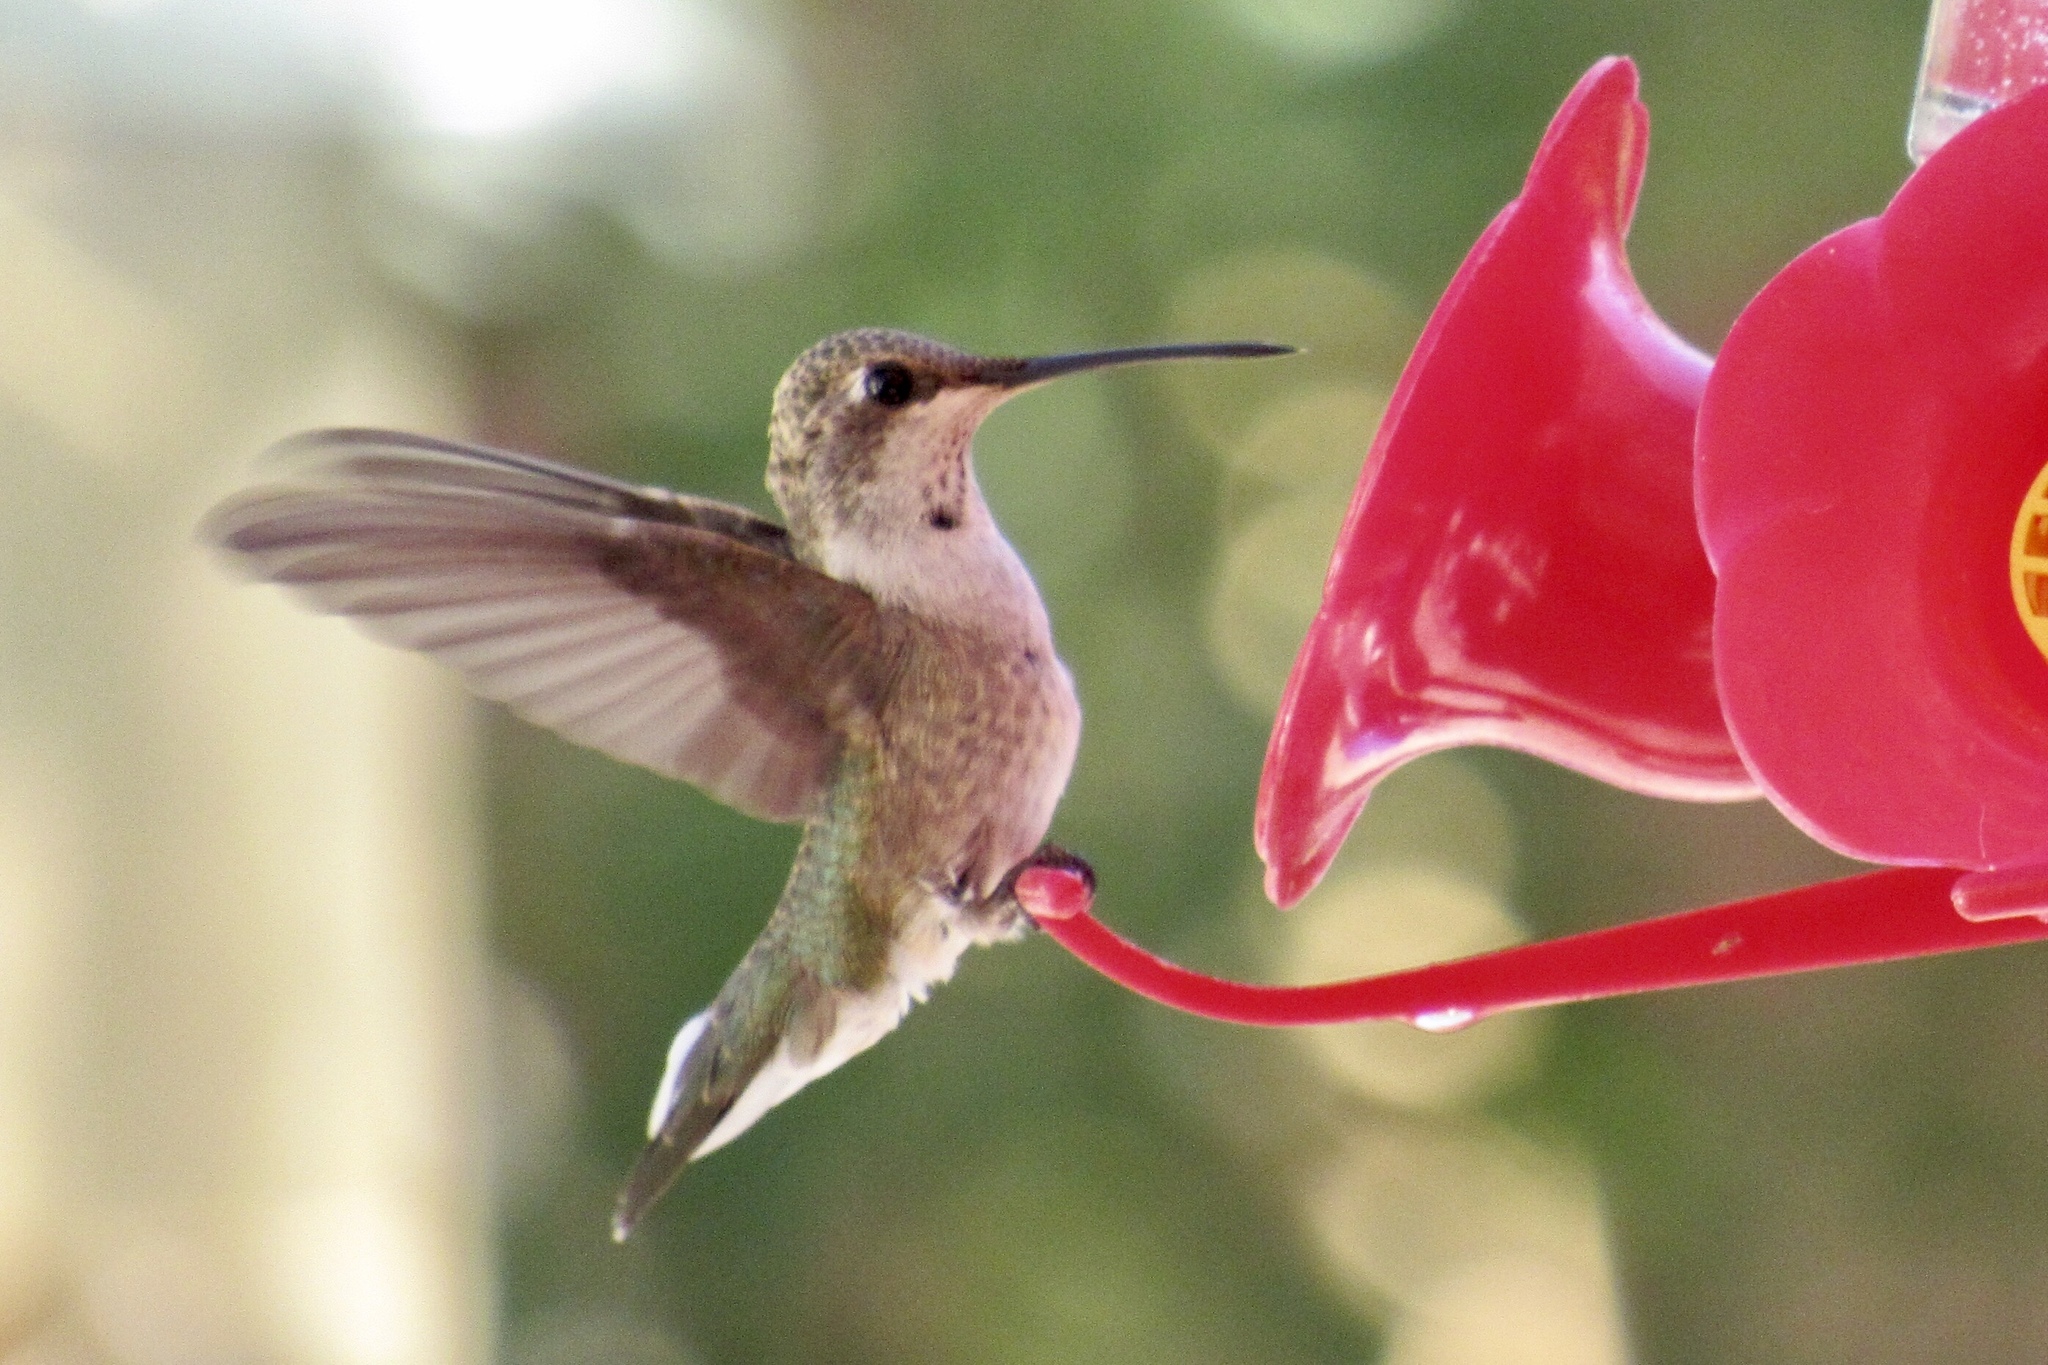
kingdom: Animalia
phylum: Chordata
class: Aves
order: Apodiformes
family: Trochilidae
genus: Archilochus
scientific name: Archilochus alexandri
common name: Black-chinned hummingbird
